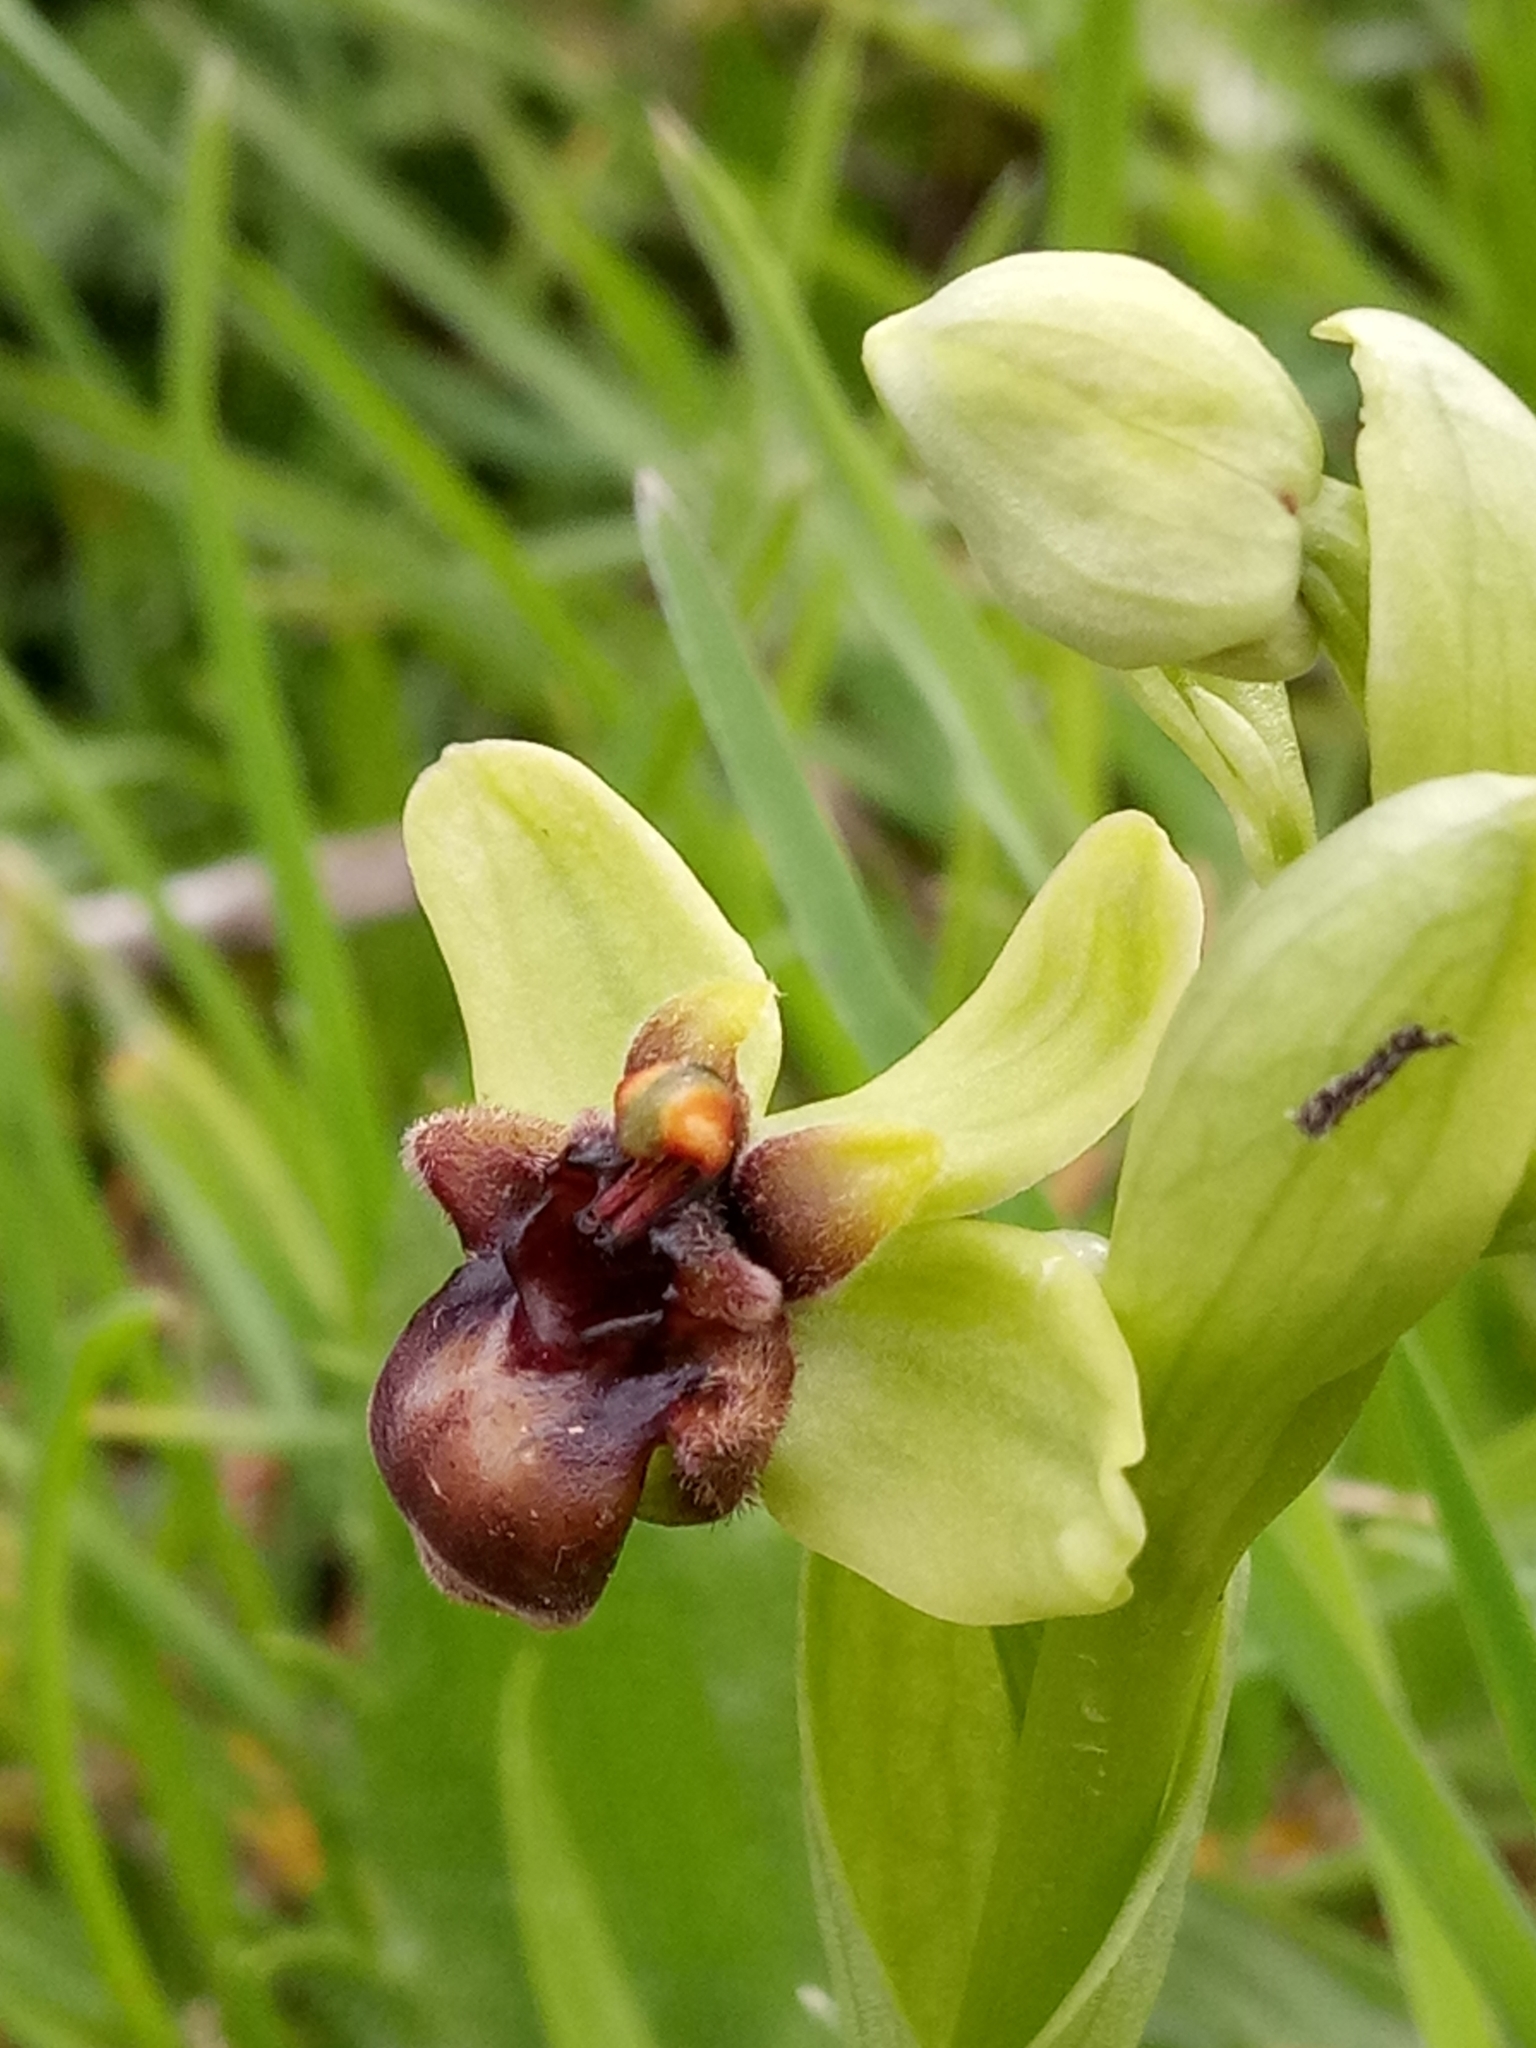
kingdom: Plantae
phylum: Tracheophyta
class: Liliopsida
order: Asparagales
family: Orchidaceae
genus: Ophrys
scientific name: Ophrys bombyliflora
